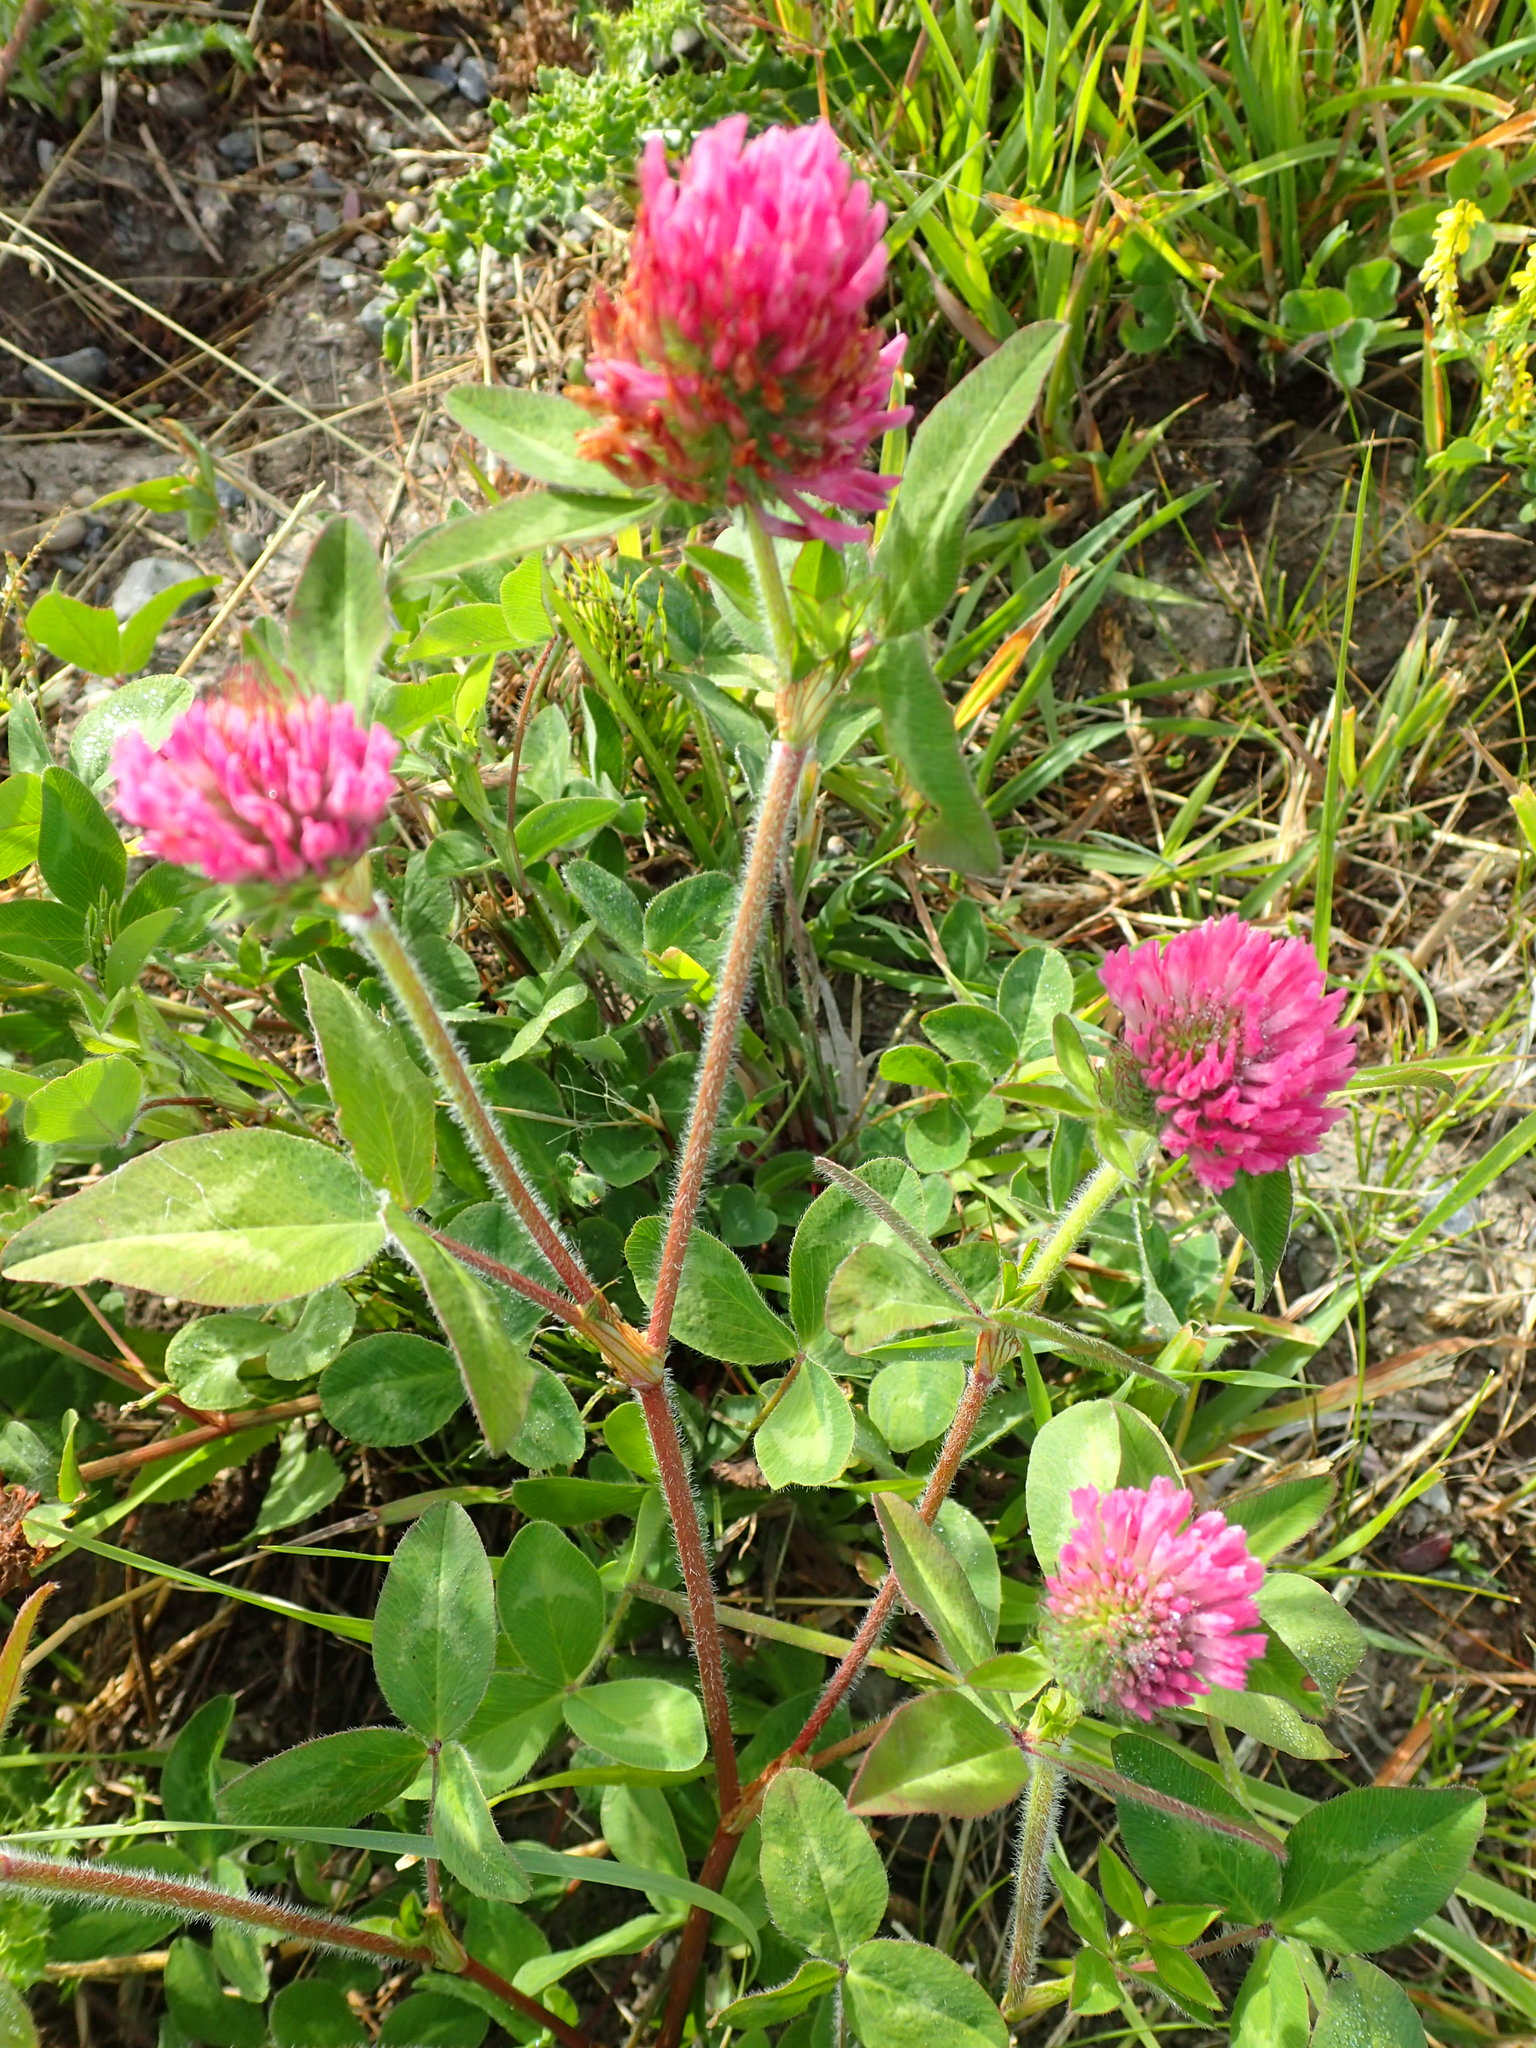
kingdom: Plantae
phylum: Tracheophyta
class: Magnoliopsida
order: Fabales
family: Fabaceae
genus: Trifolium
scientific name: Trifolium pratense
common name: Red clover
